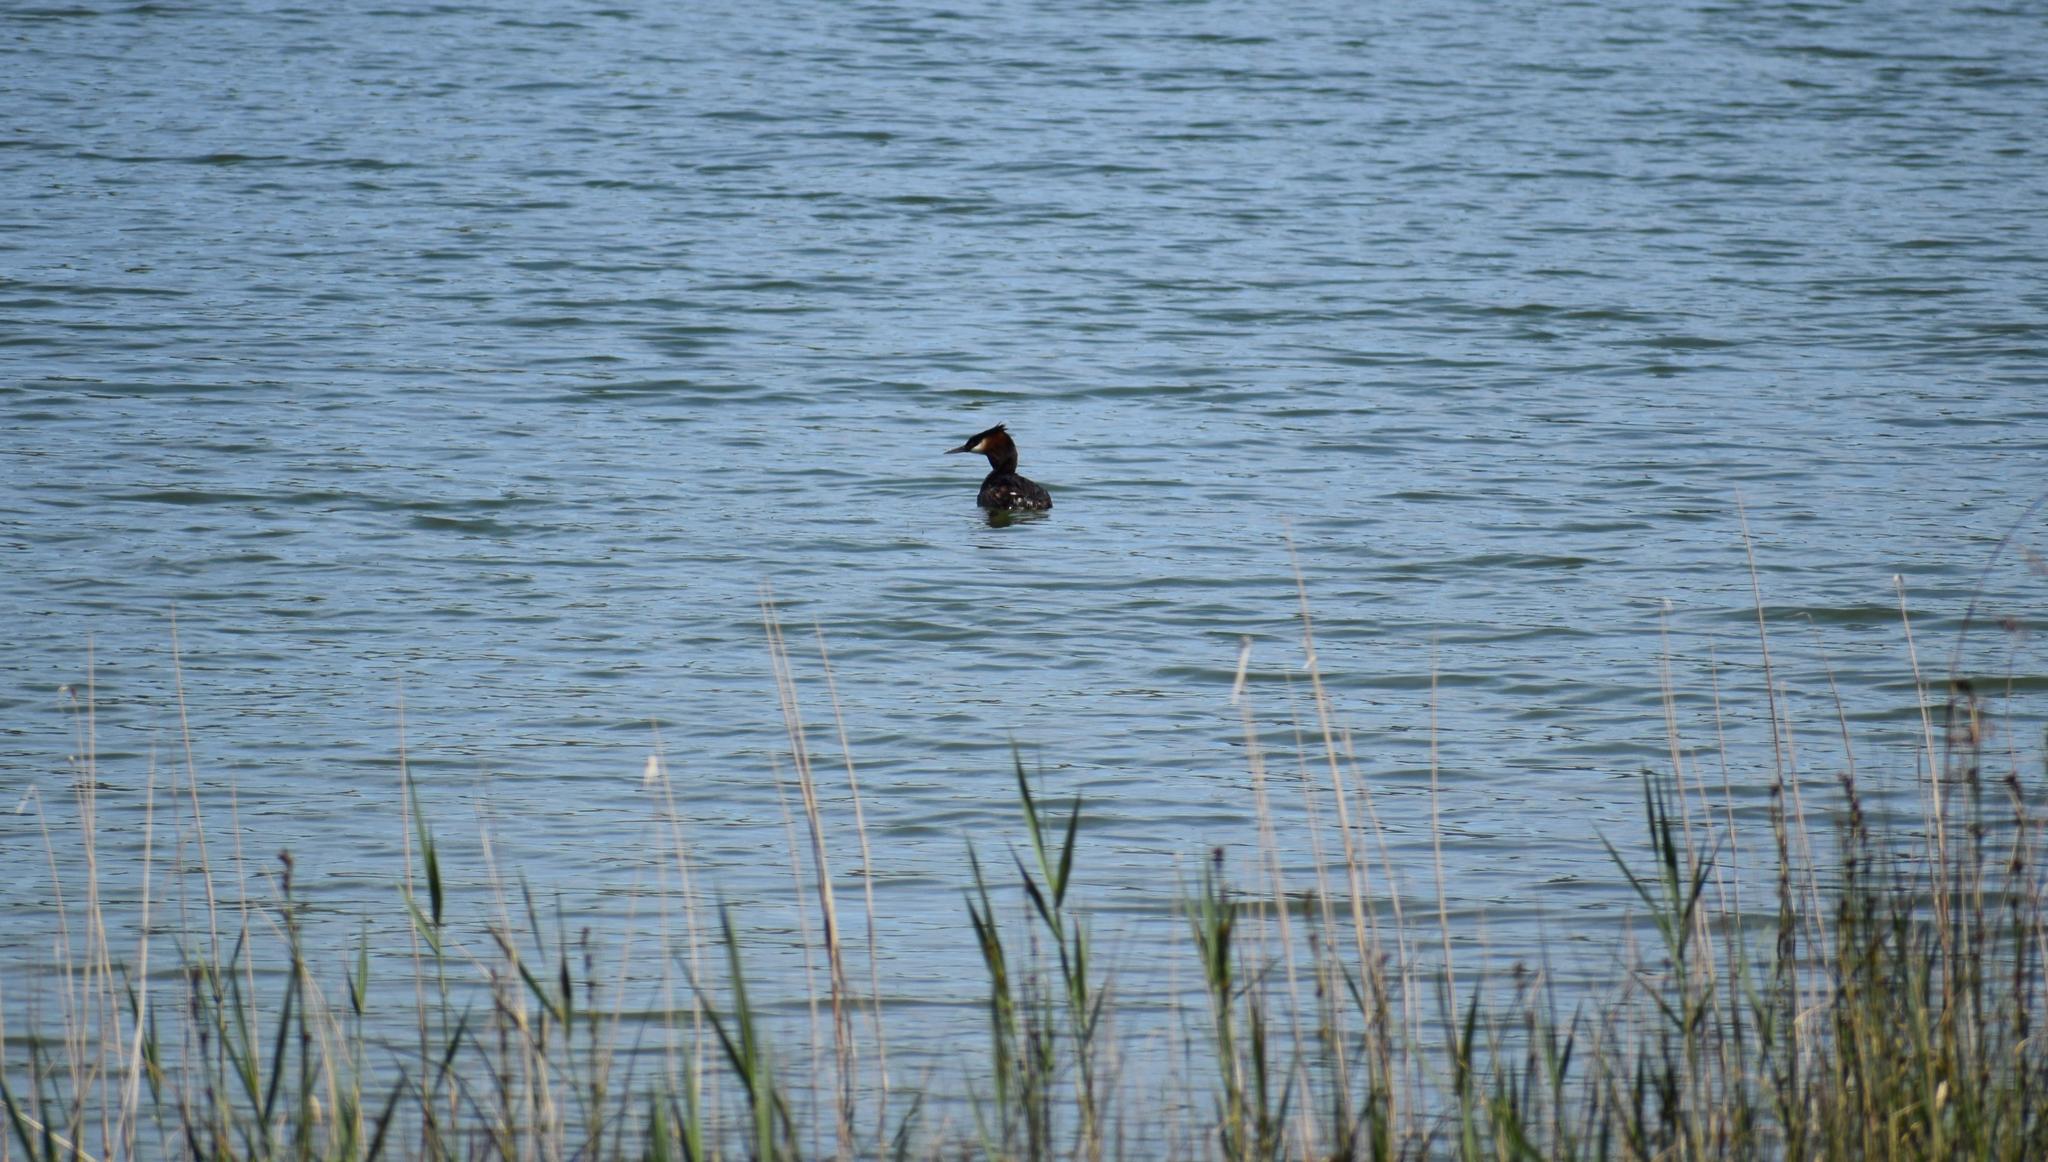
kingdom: Animalia
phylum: Chordata
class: Aves
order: Podicipediformes
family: Podicipedidae
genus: Podiceps
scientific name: Podiceps cristatus
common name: Great crested grebe
